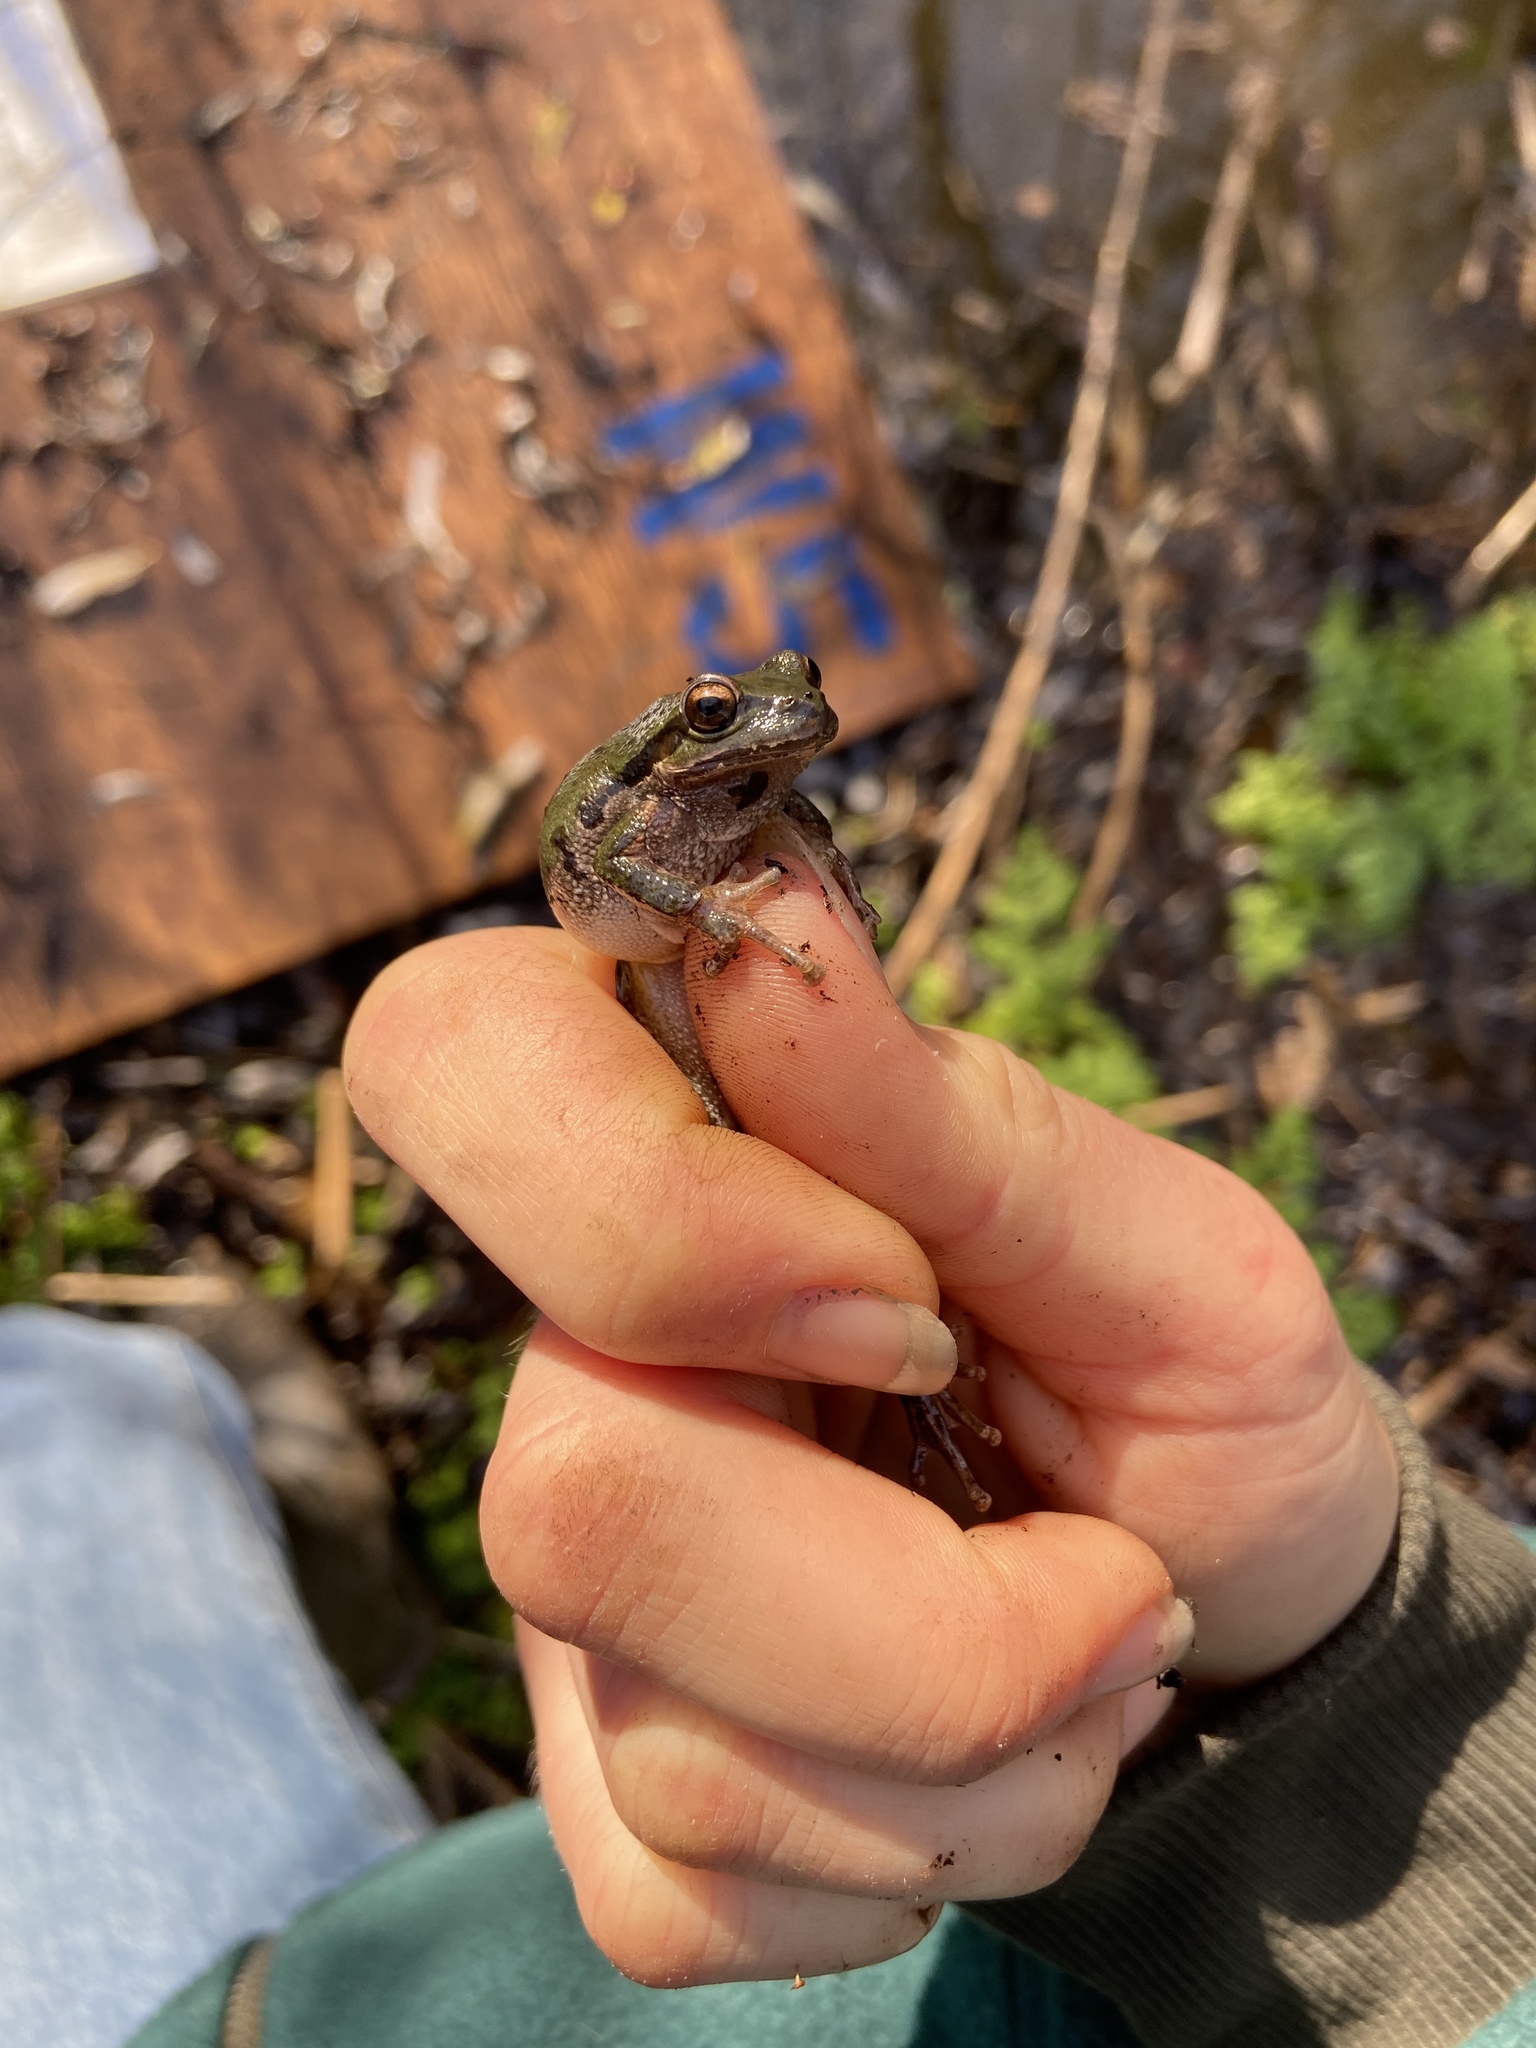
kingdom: Animalia
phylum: Chordata
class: Amphibia
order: Anura
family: Hylidae
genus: Pseudacris
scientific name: Pseudacris regilla
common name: Pacific chorus frog
